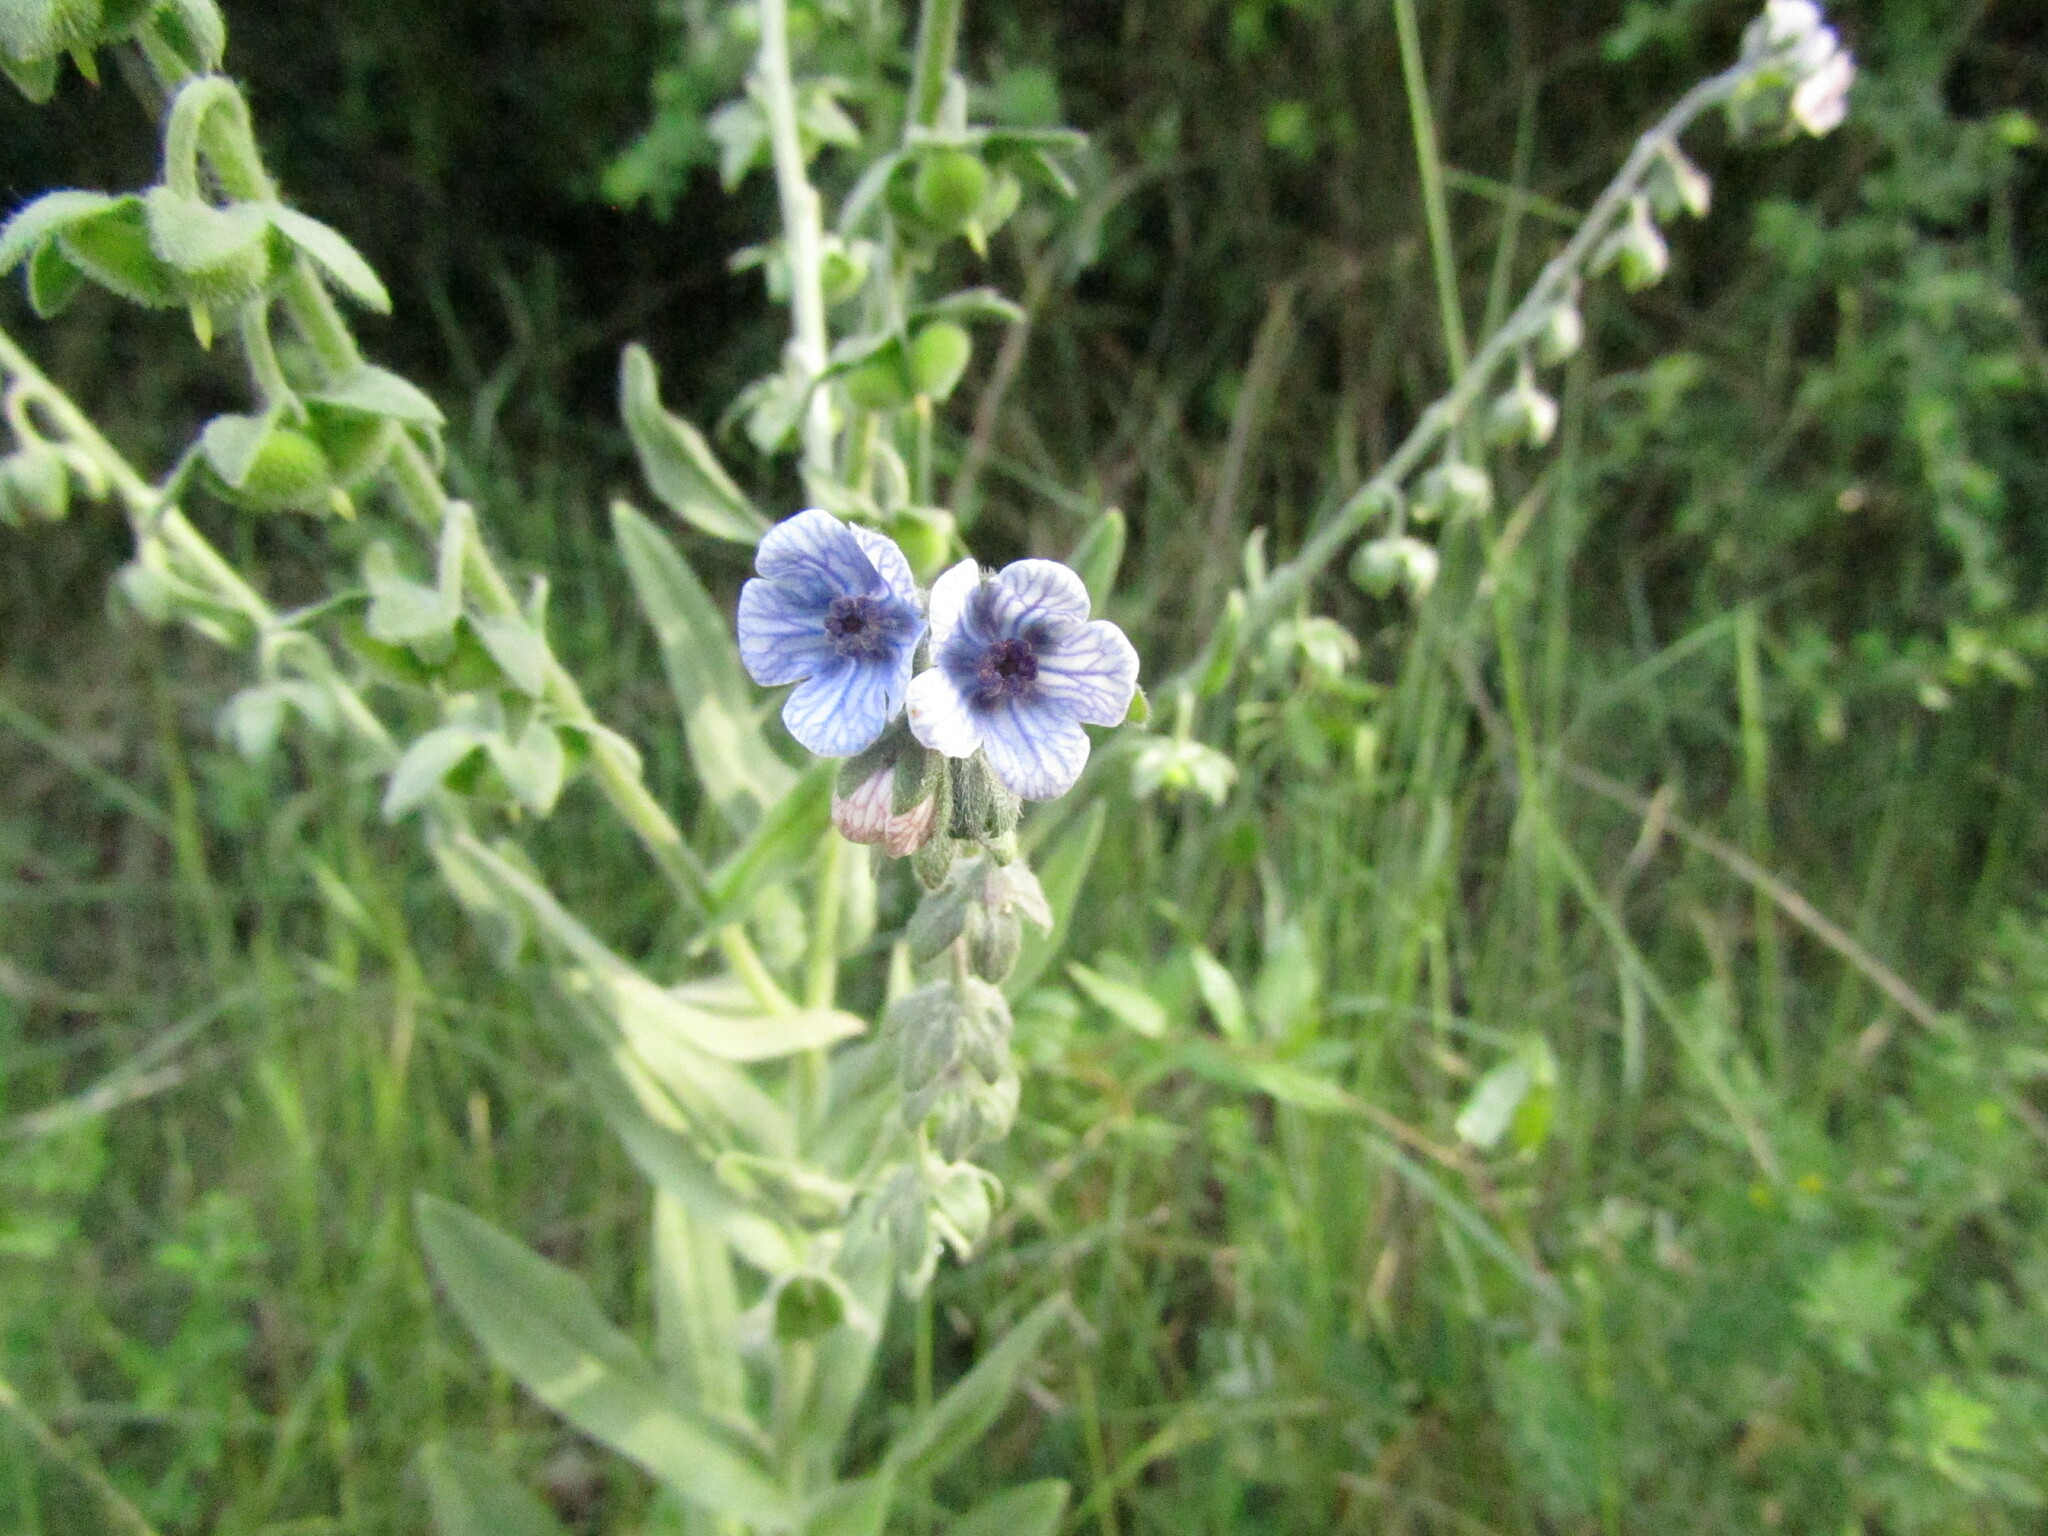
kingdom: Plantae
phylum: Tracheophyta
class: Magnoliopsida
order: Boraginales
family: Boraginaceae
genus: Cynoglossum
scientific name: Cynoglossum creticum
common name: Blue hound's tongue
